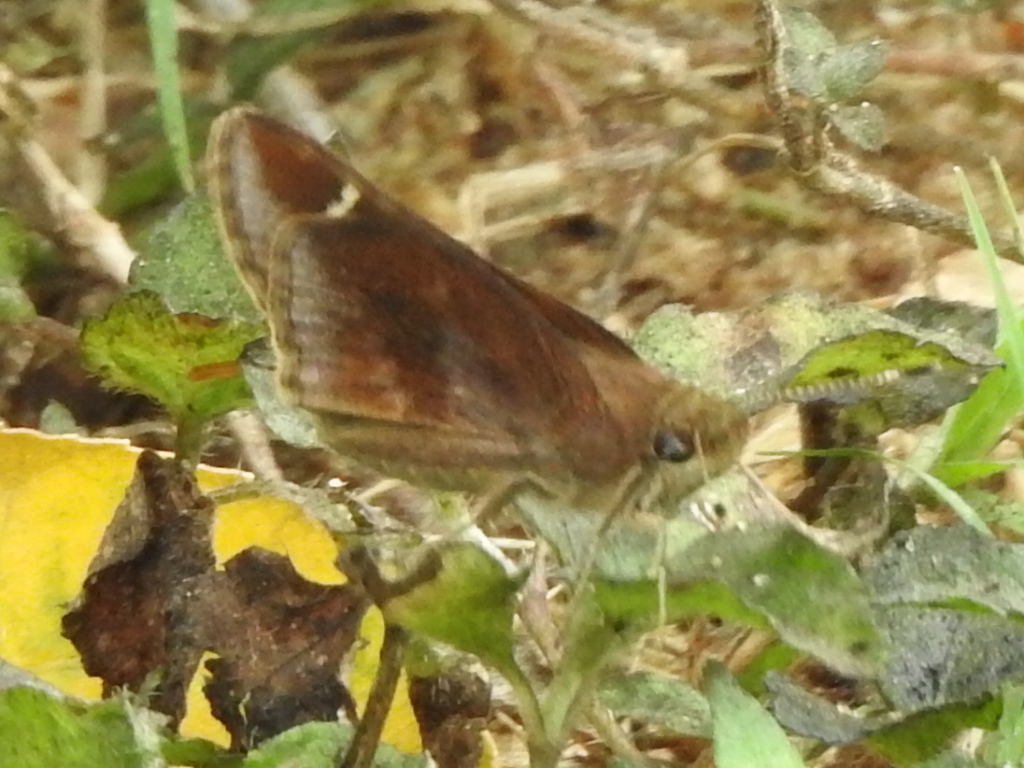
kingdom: Animalia
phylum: Arthropoda
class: Insecta
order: Lepidoptera
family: Hesperiidae
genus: Lerema
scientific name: Lerema accius
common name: Clouded skipper
